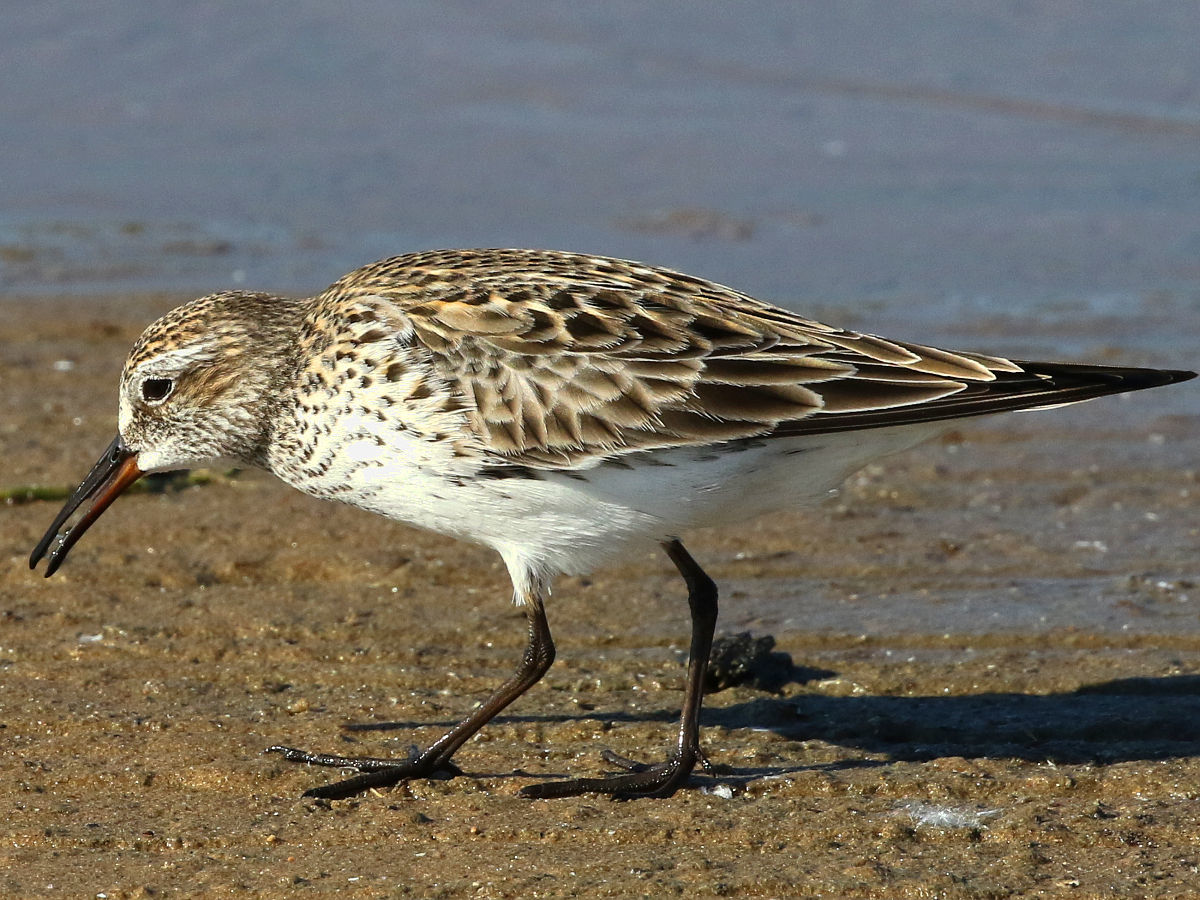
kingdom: Animalia
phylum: Chordata
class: Aves
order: Charadriiformes
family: Scolopacidae
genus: Calidris
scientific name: Calidris fuscicollis
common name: White-rumped sandpiper
